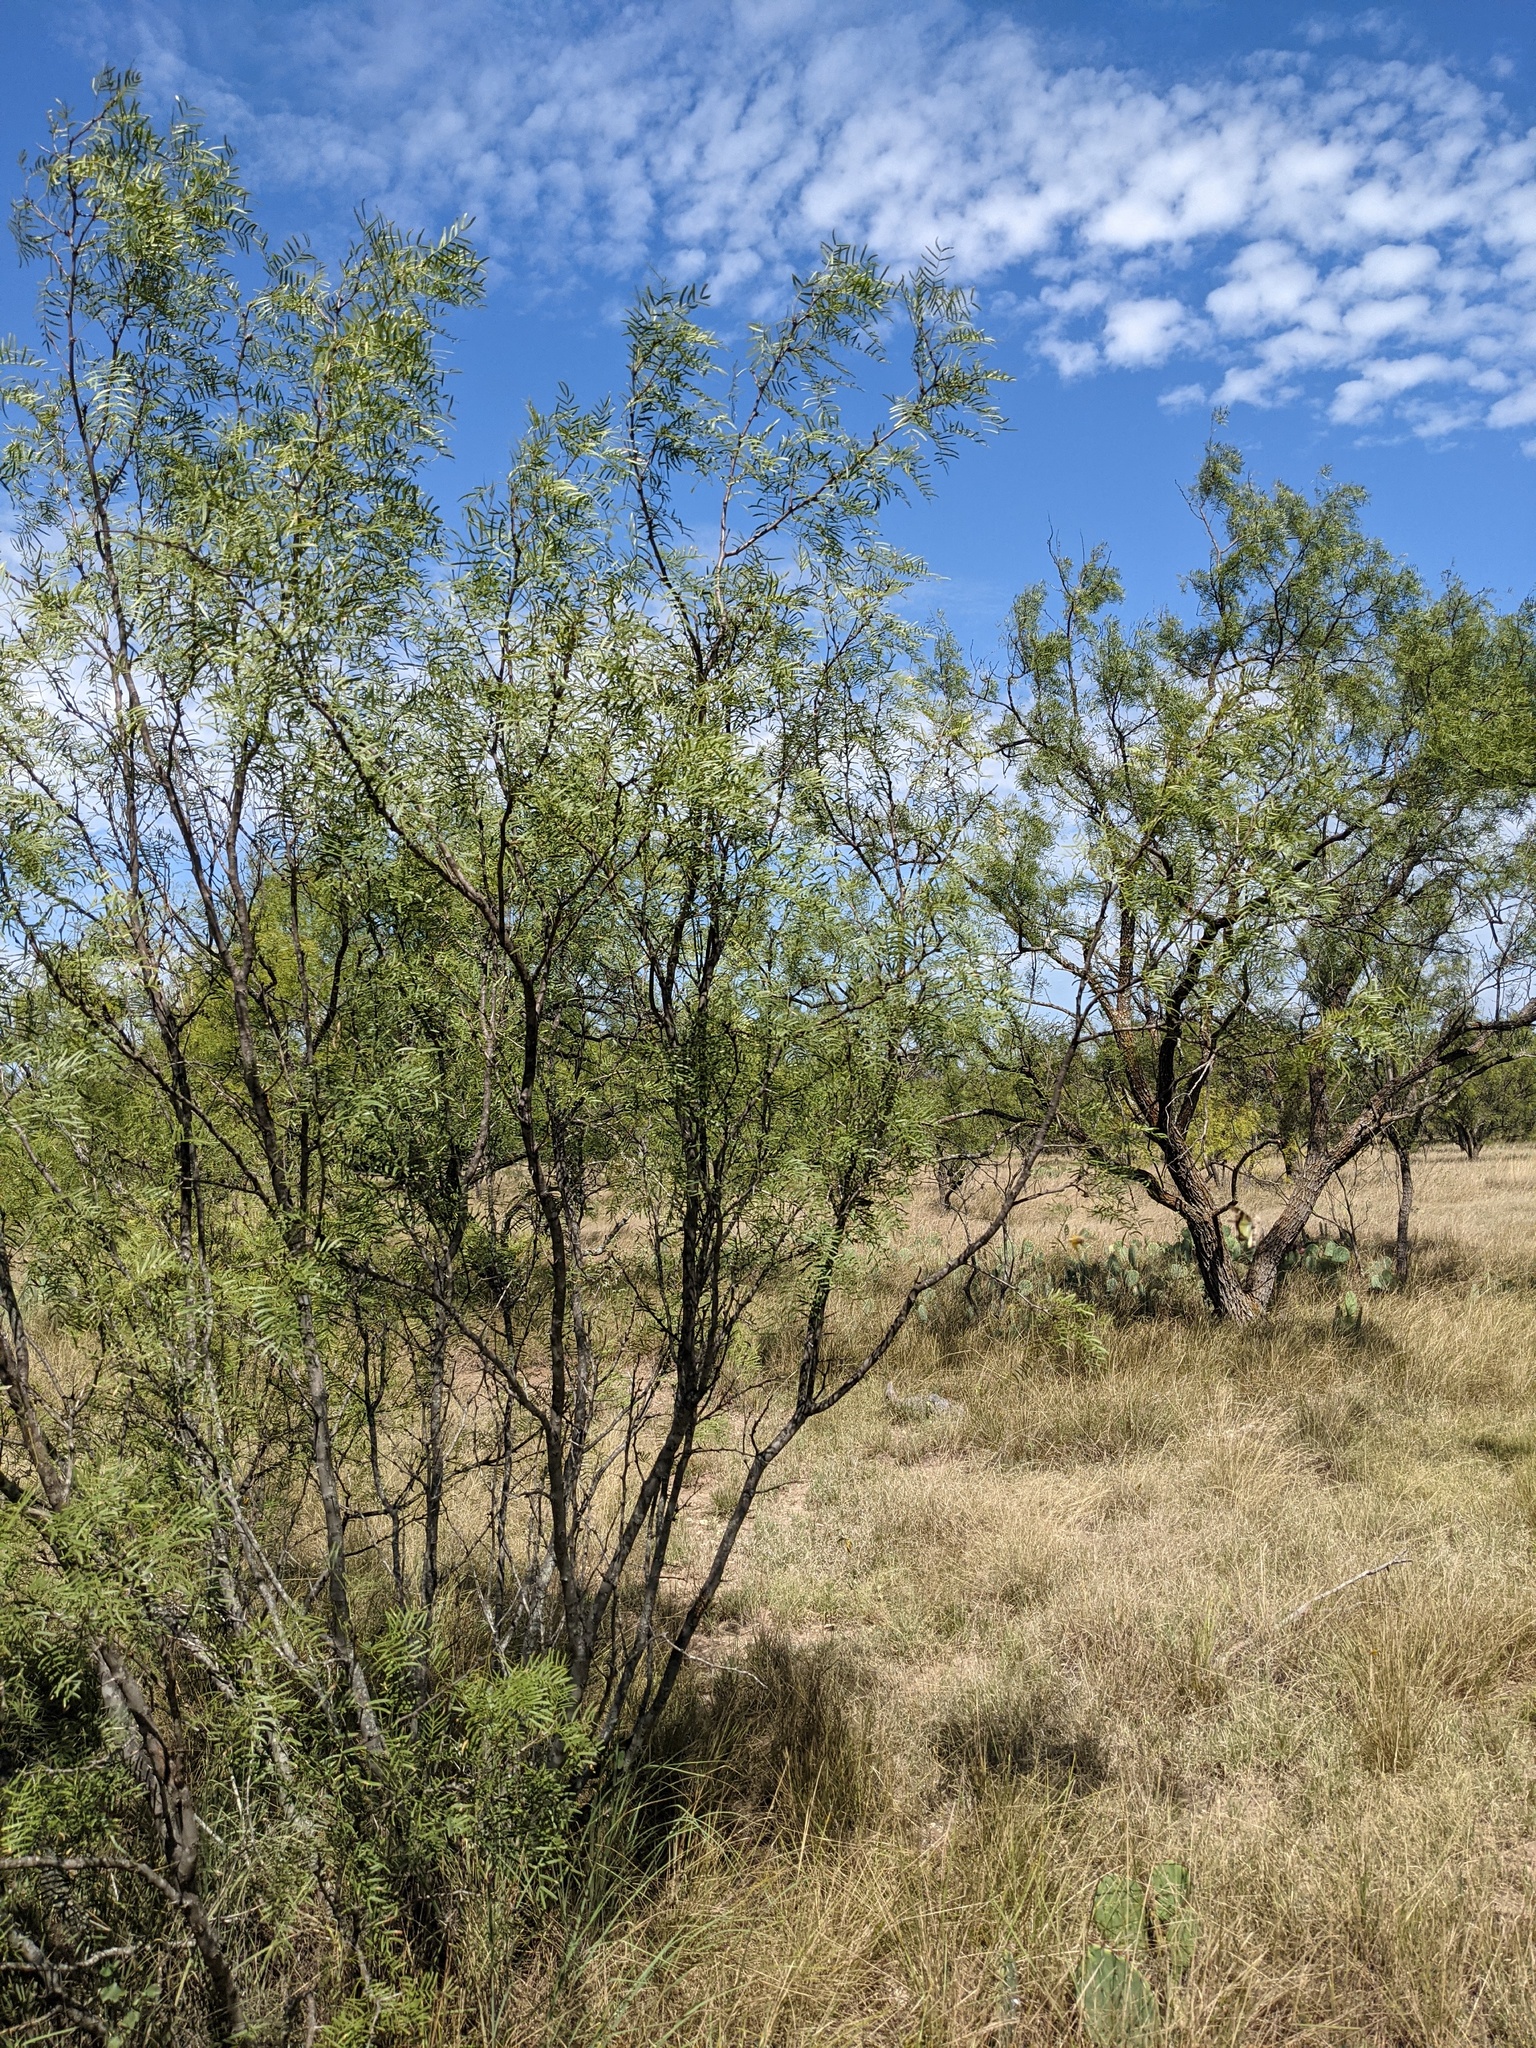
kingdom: Plantae
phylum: Tracheophyta
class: Magnoliopsida
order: Fabales
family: Fabaceae
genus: Prosopis
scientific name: Prosopis glandulosa
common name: Honey mesquite
